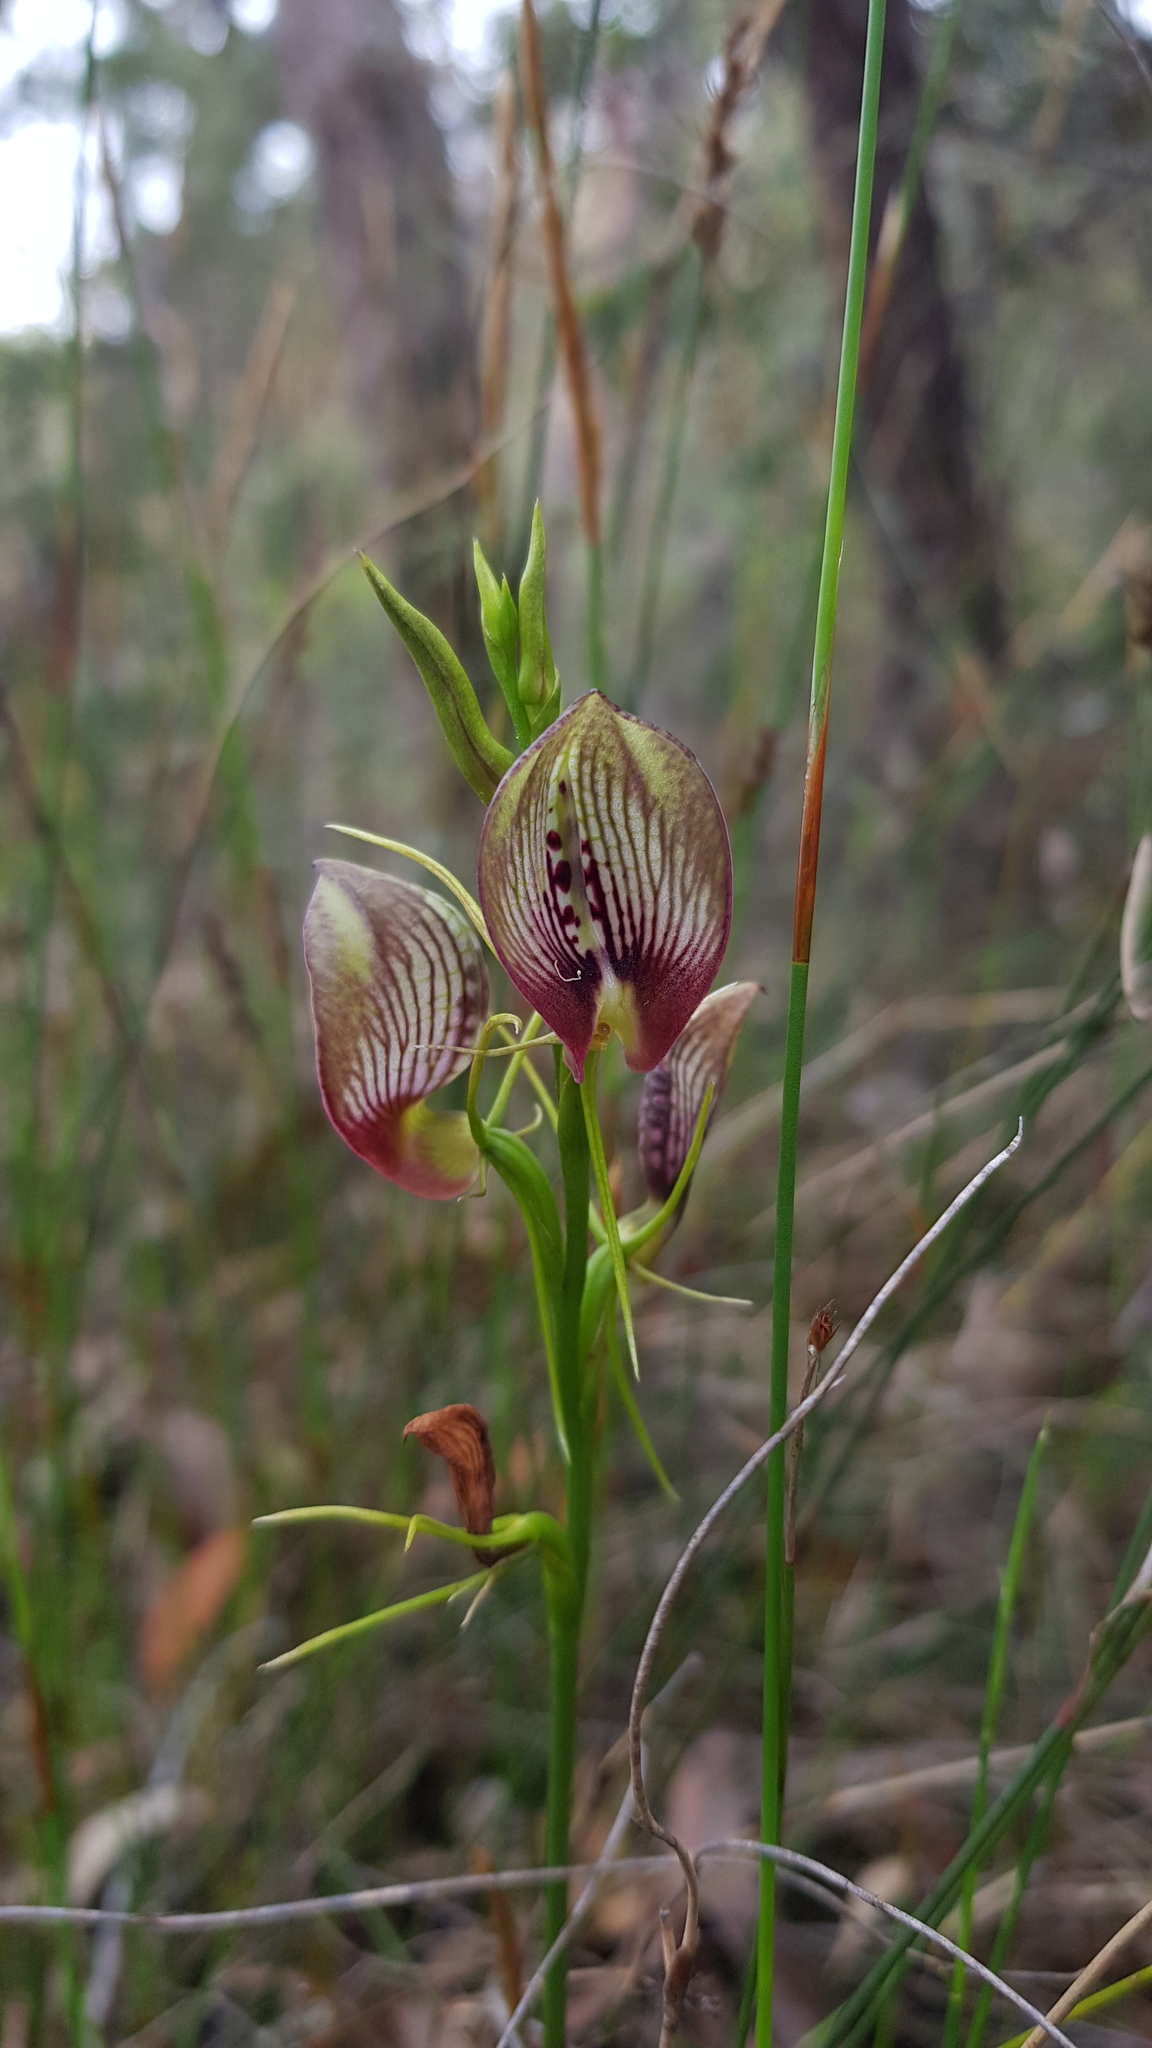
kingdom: Plantae
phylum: Tracheophyta
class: Liliopsida
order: Asparagales
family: Orchidaceae
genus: Cryptostylis
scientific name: Cryptostylis erecta
